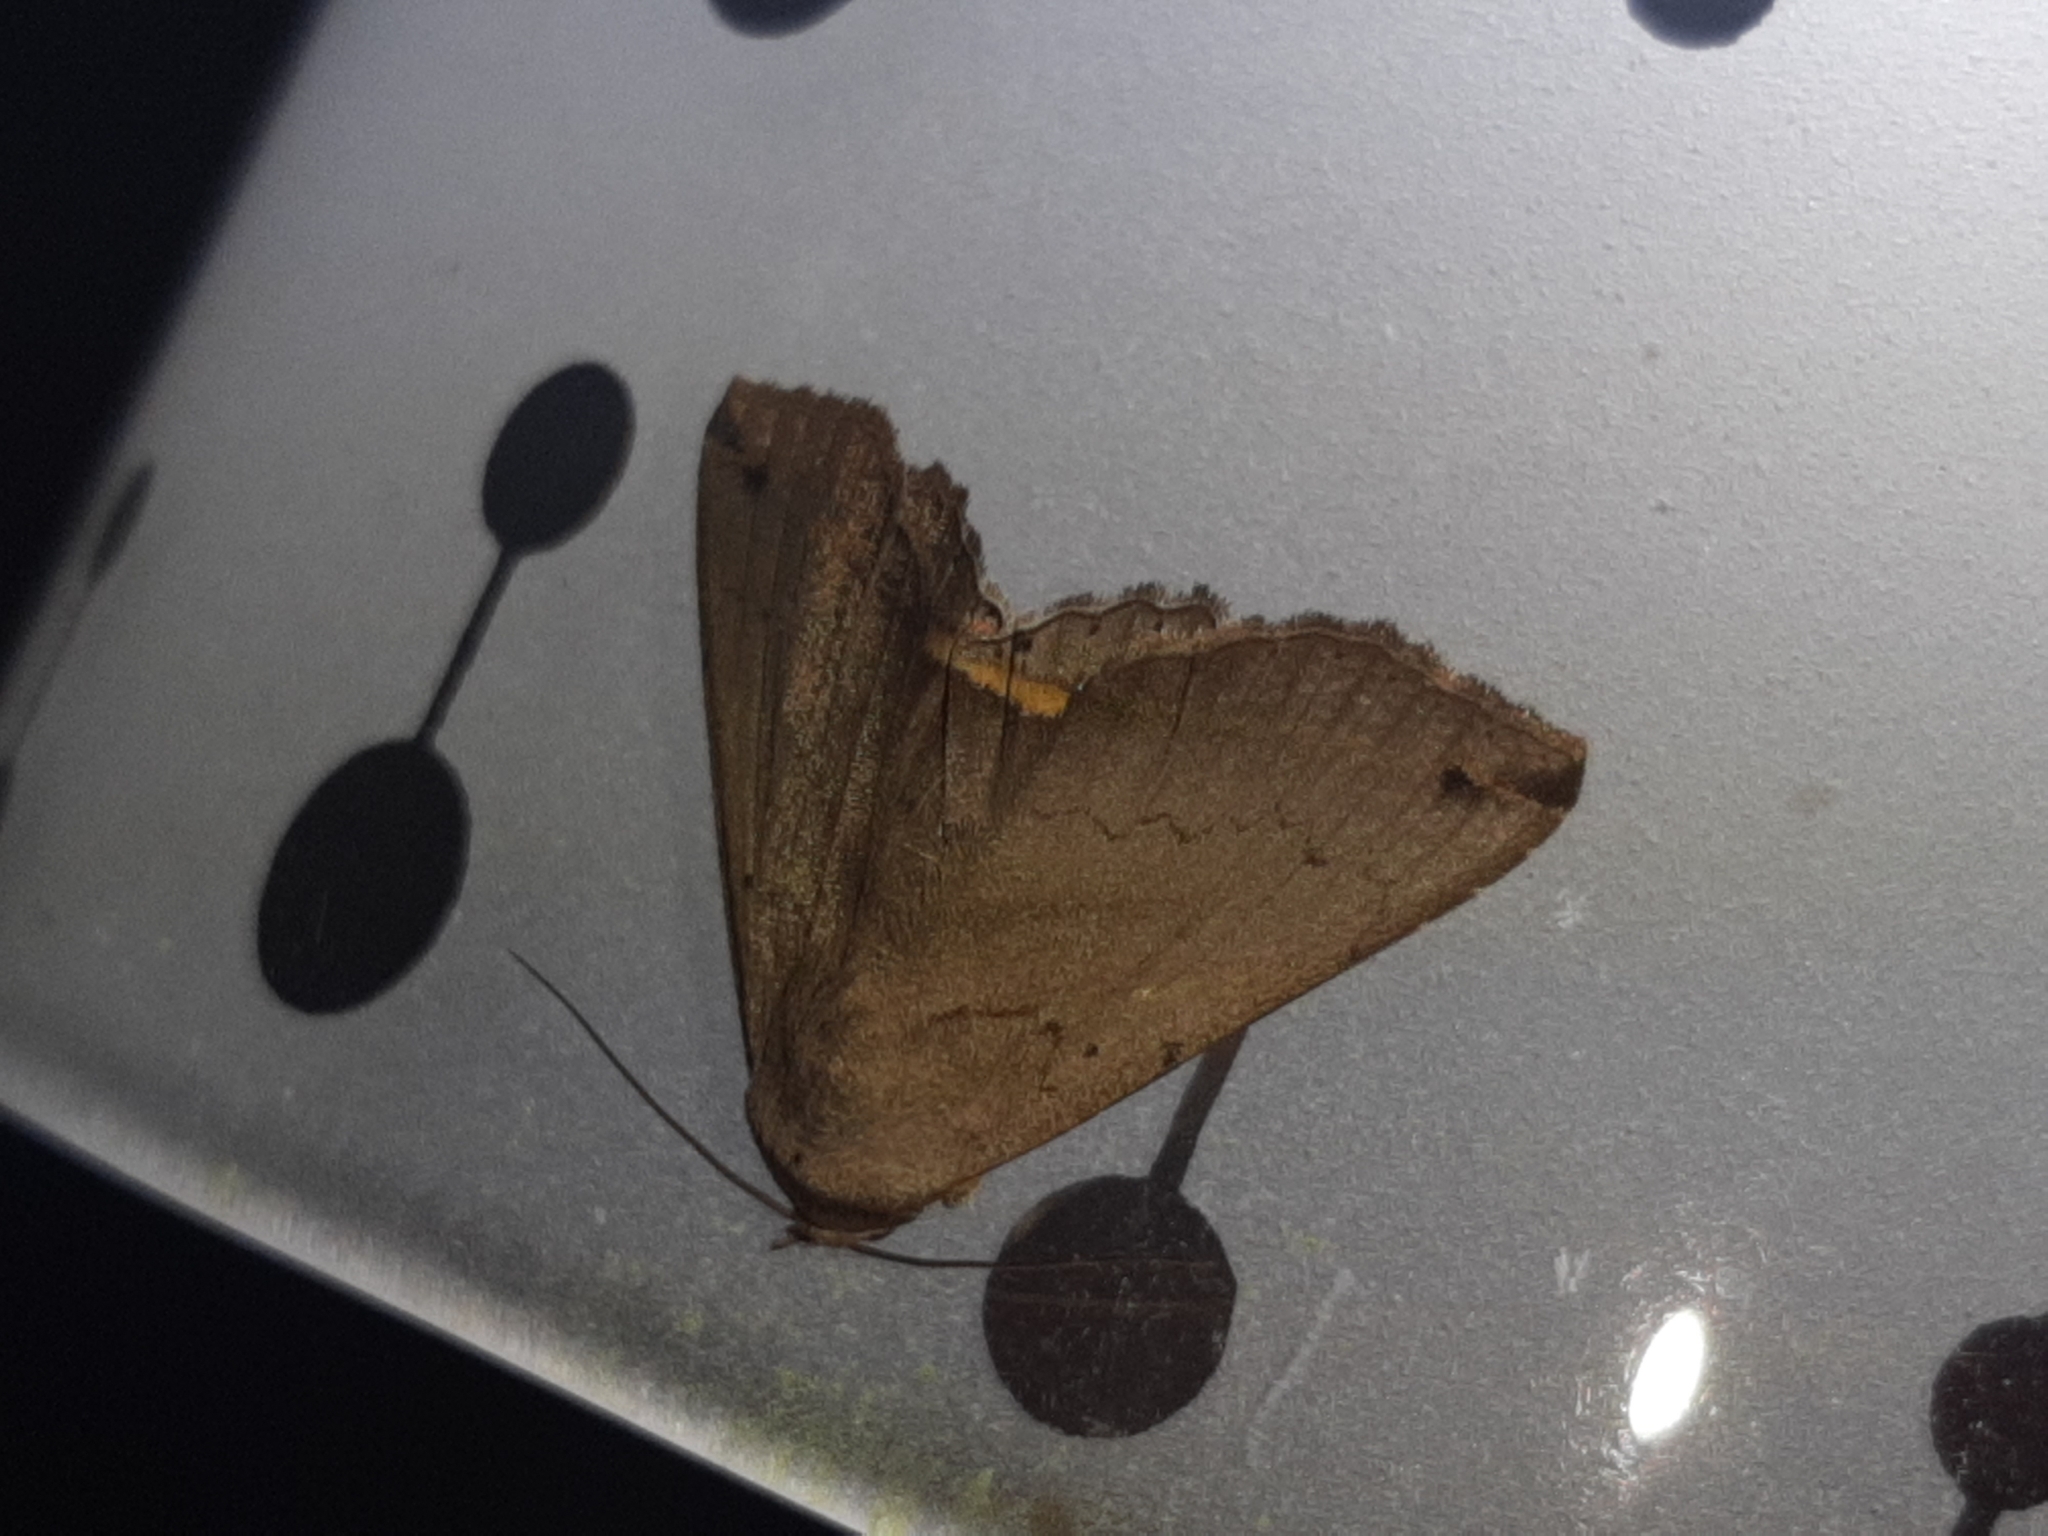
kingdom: Animalia
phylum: Arthropoda
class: Insecta
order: Lepidoptera
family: Erebidae
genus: Lesmone
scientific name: Lesmone formularis
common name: Lesmone moth
